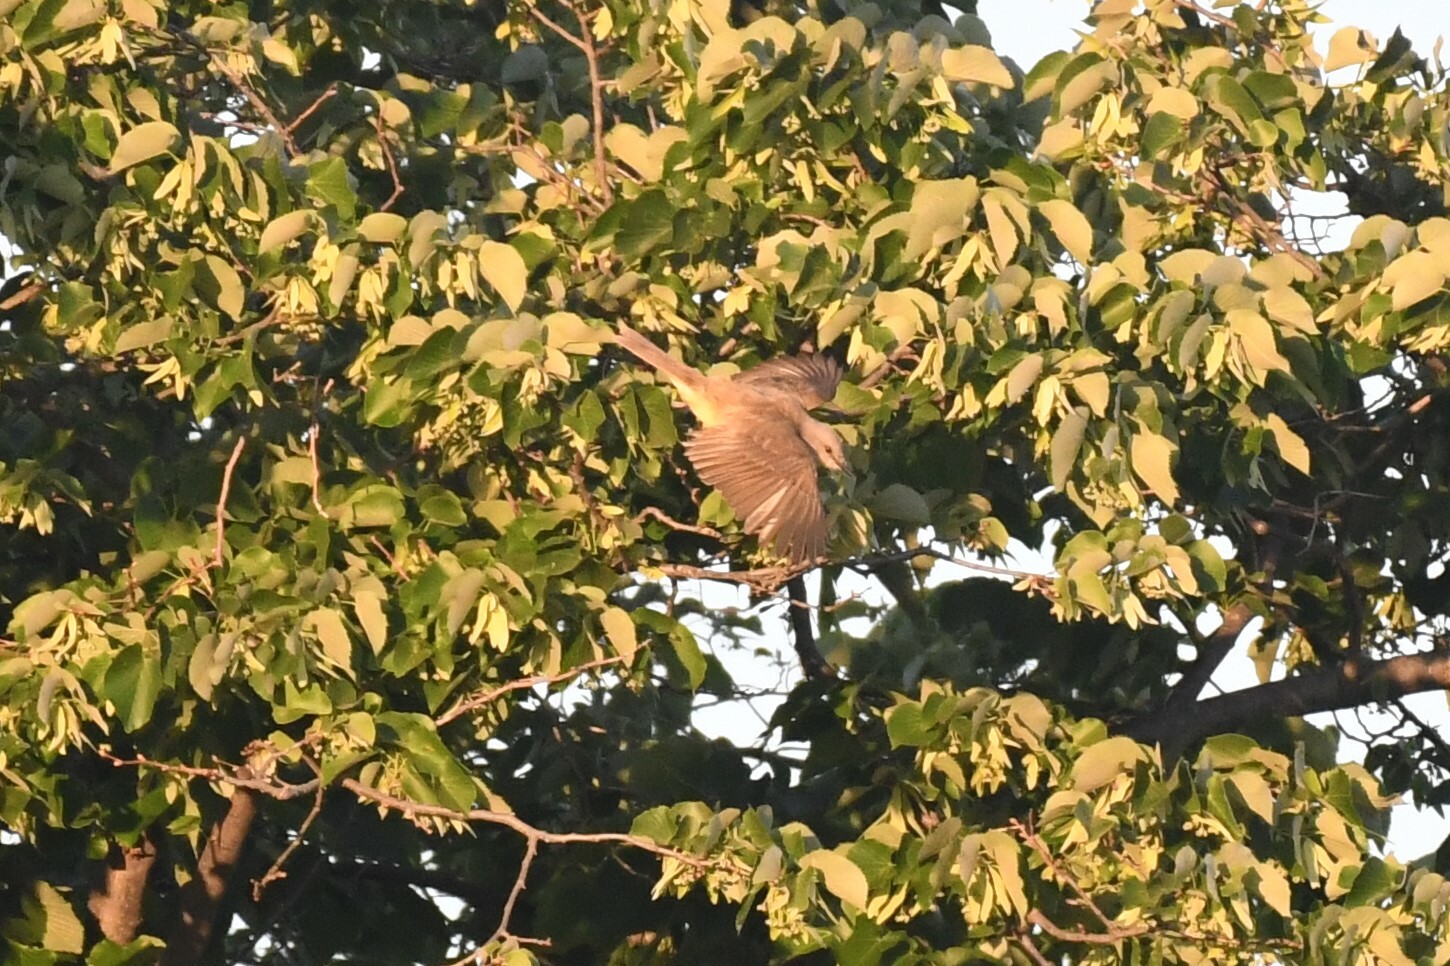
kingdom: Animalia
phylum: Chordata
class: Aves
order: Passeriformes
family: Tyrannidae
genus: Machetornis
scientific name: Machetornis rixosa
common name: Cattle tyrant
